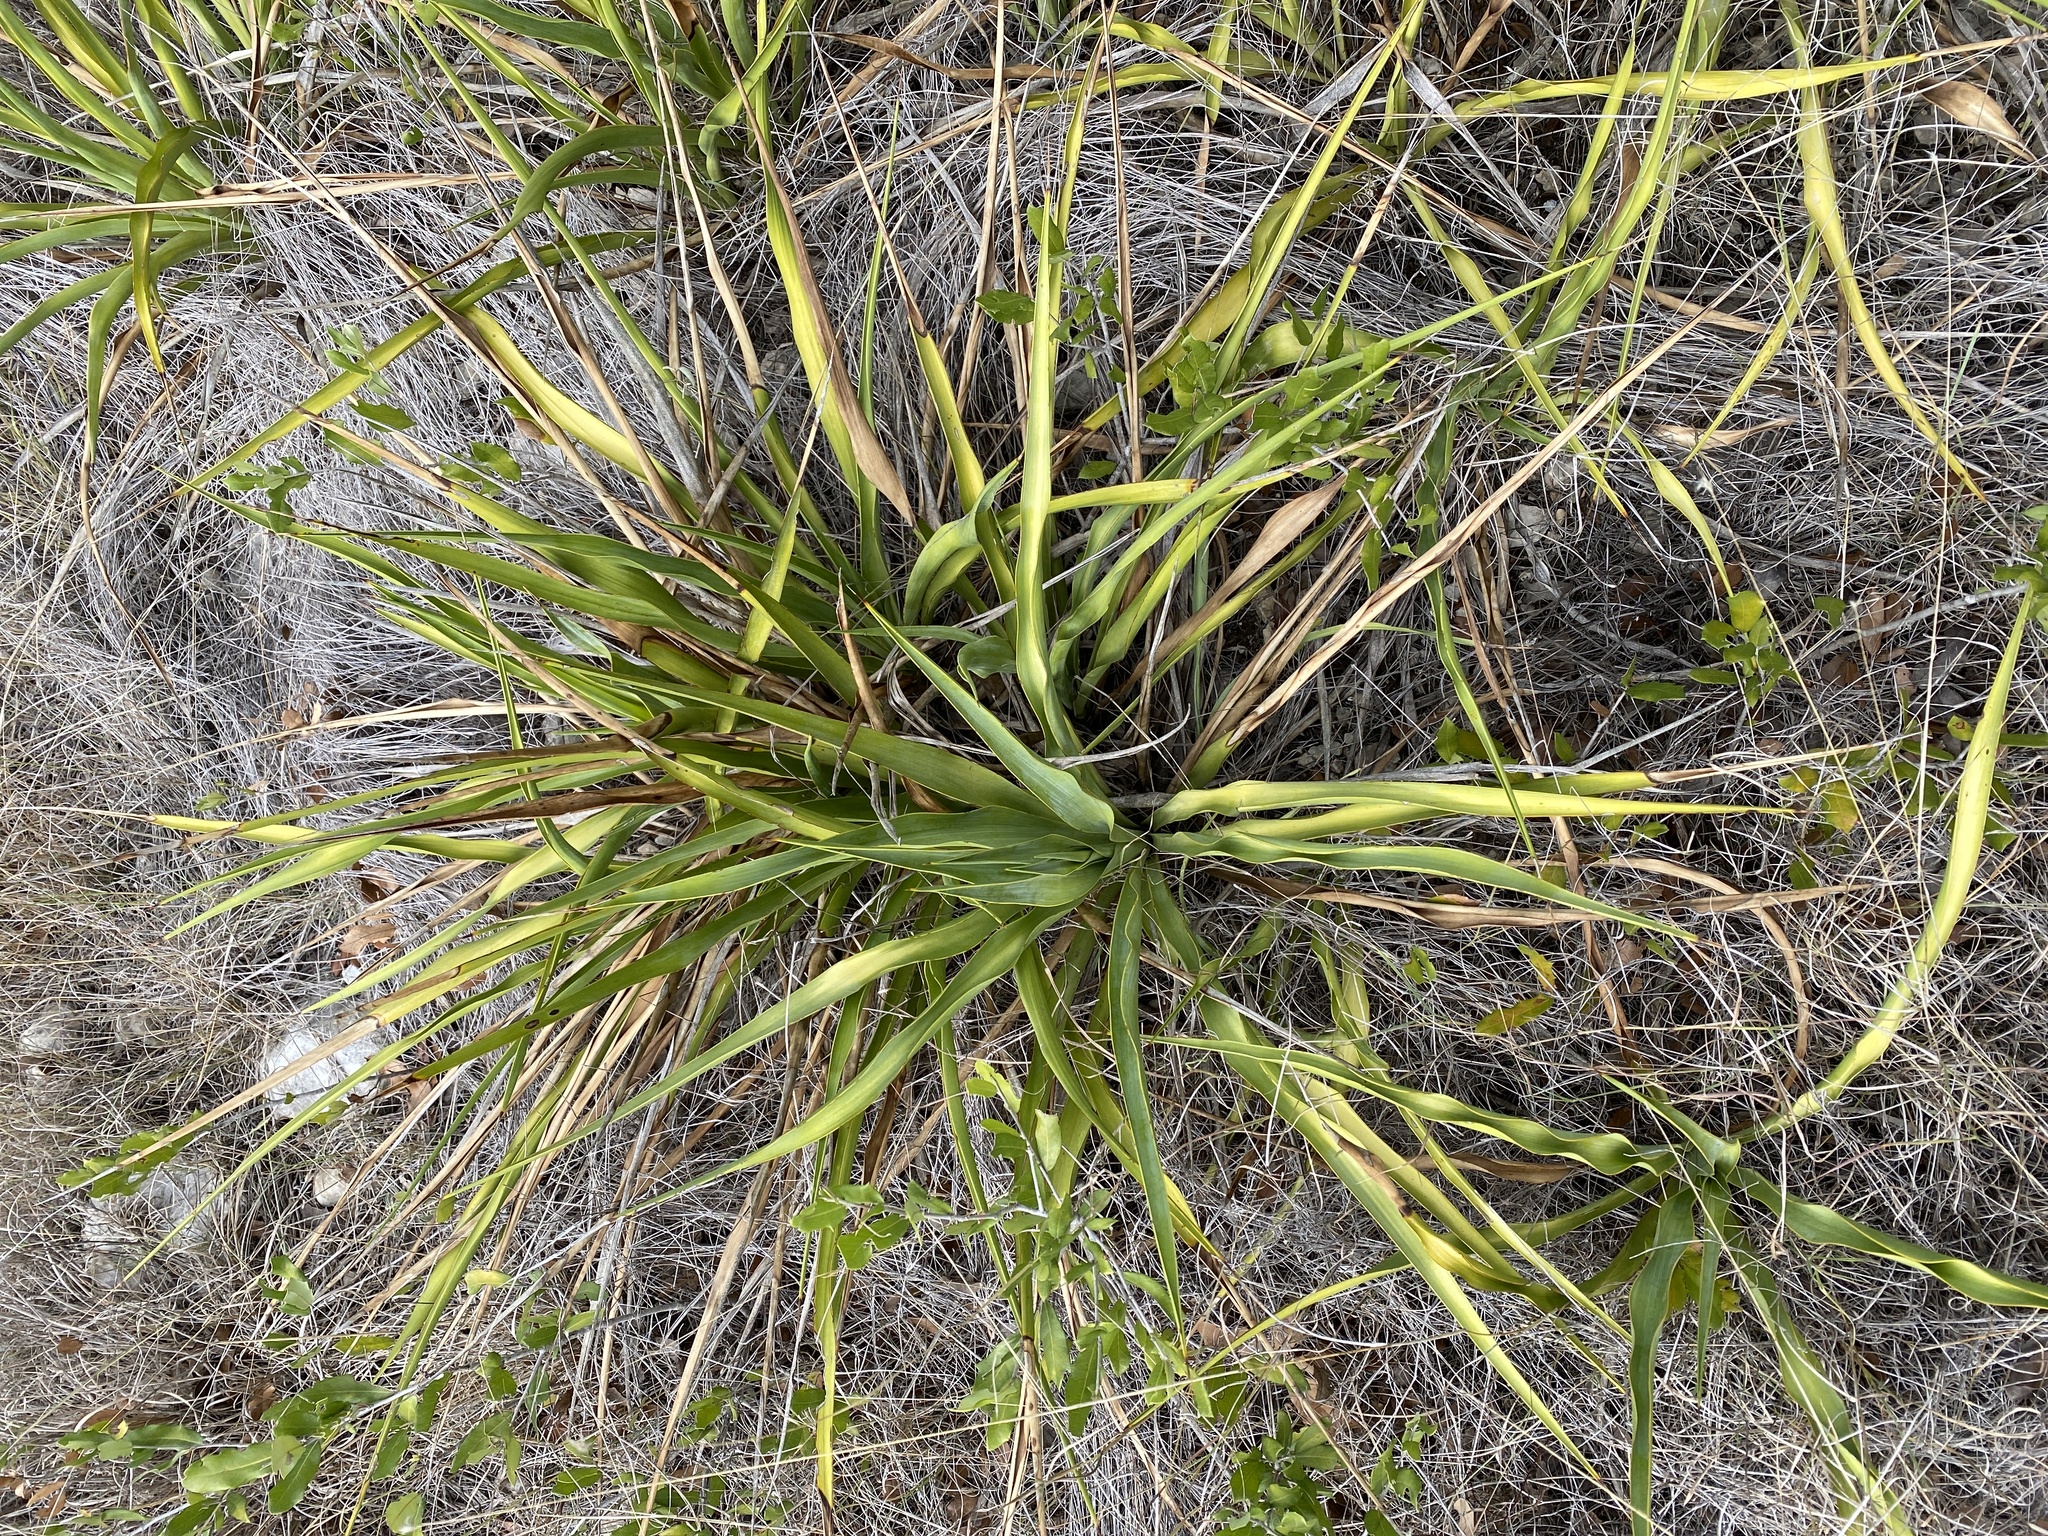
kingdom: Plantae
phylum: Tracheophyta
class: Liliopsida
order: Asparagales
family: Asparagaceae
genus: Yucca
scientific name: Yucca rupicola
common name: Twisted-leaf spanish-dagger
